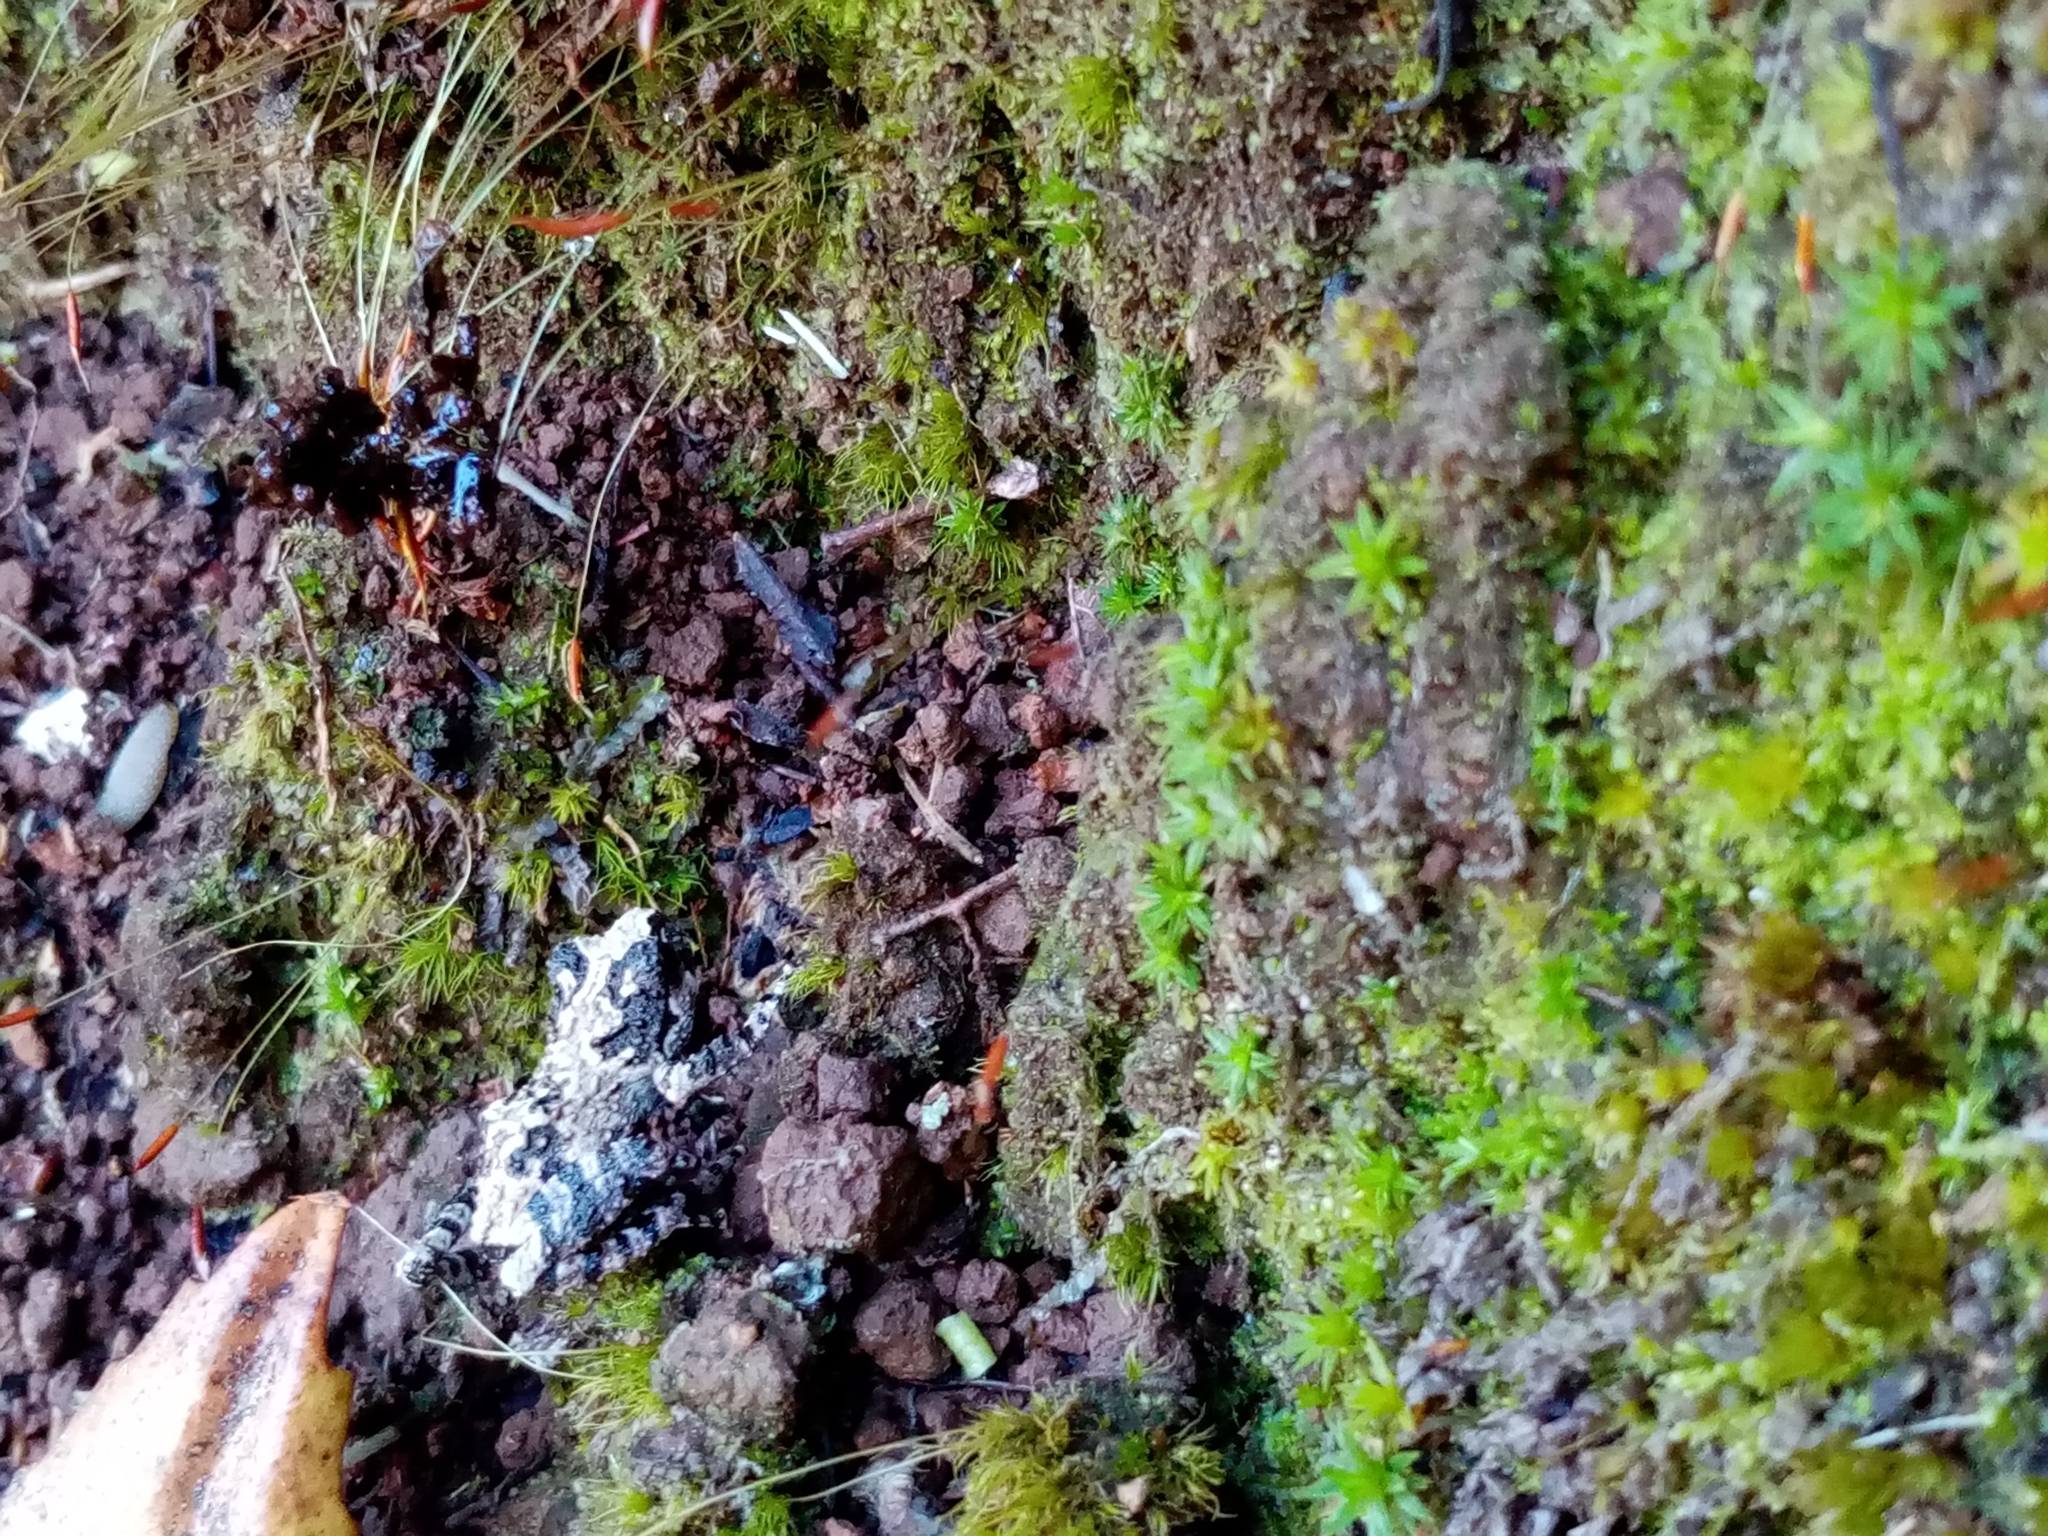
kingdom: Animalia
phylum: Chordata
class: Amphibia
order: Anura
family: Batrachylidae
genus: Batrachyla
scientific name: Batrachyla leptopus
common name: Gray wood frog
